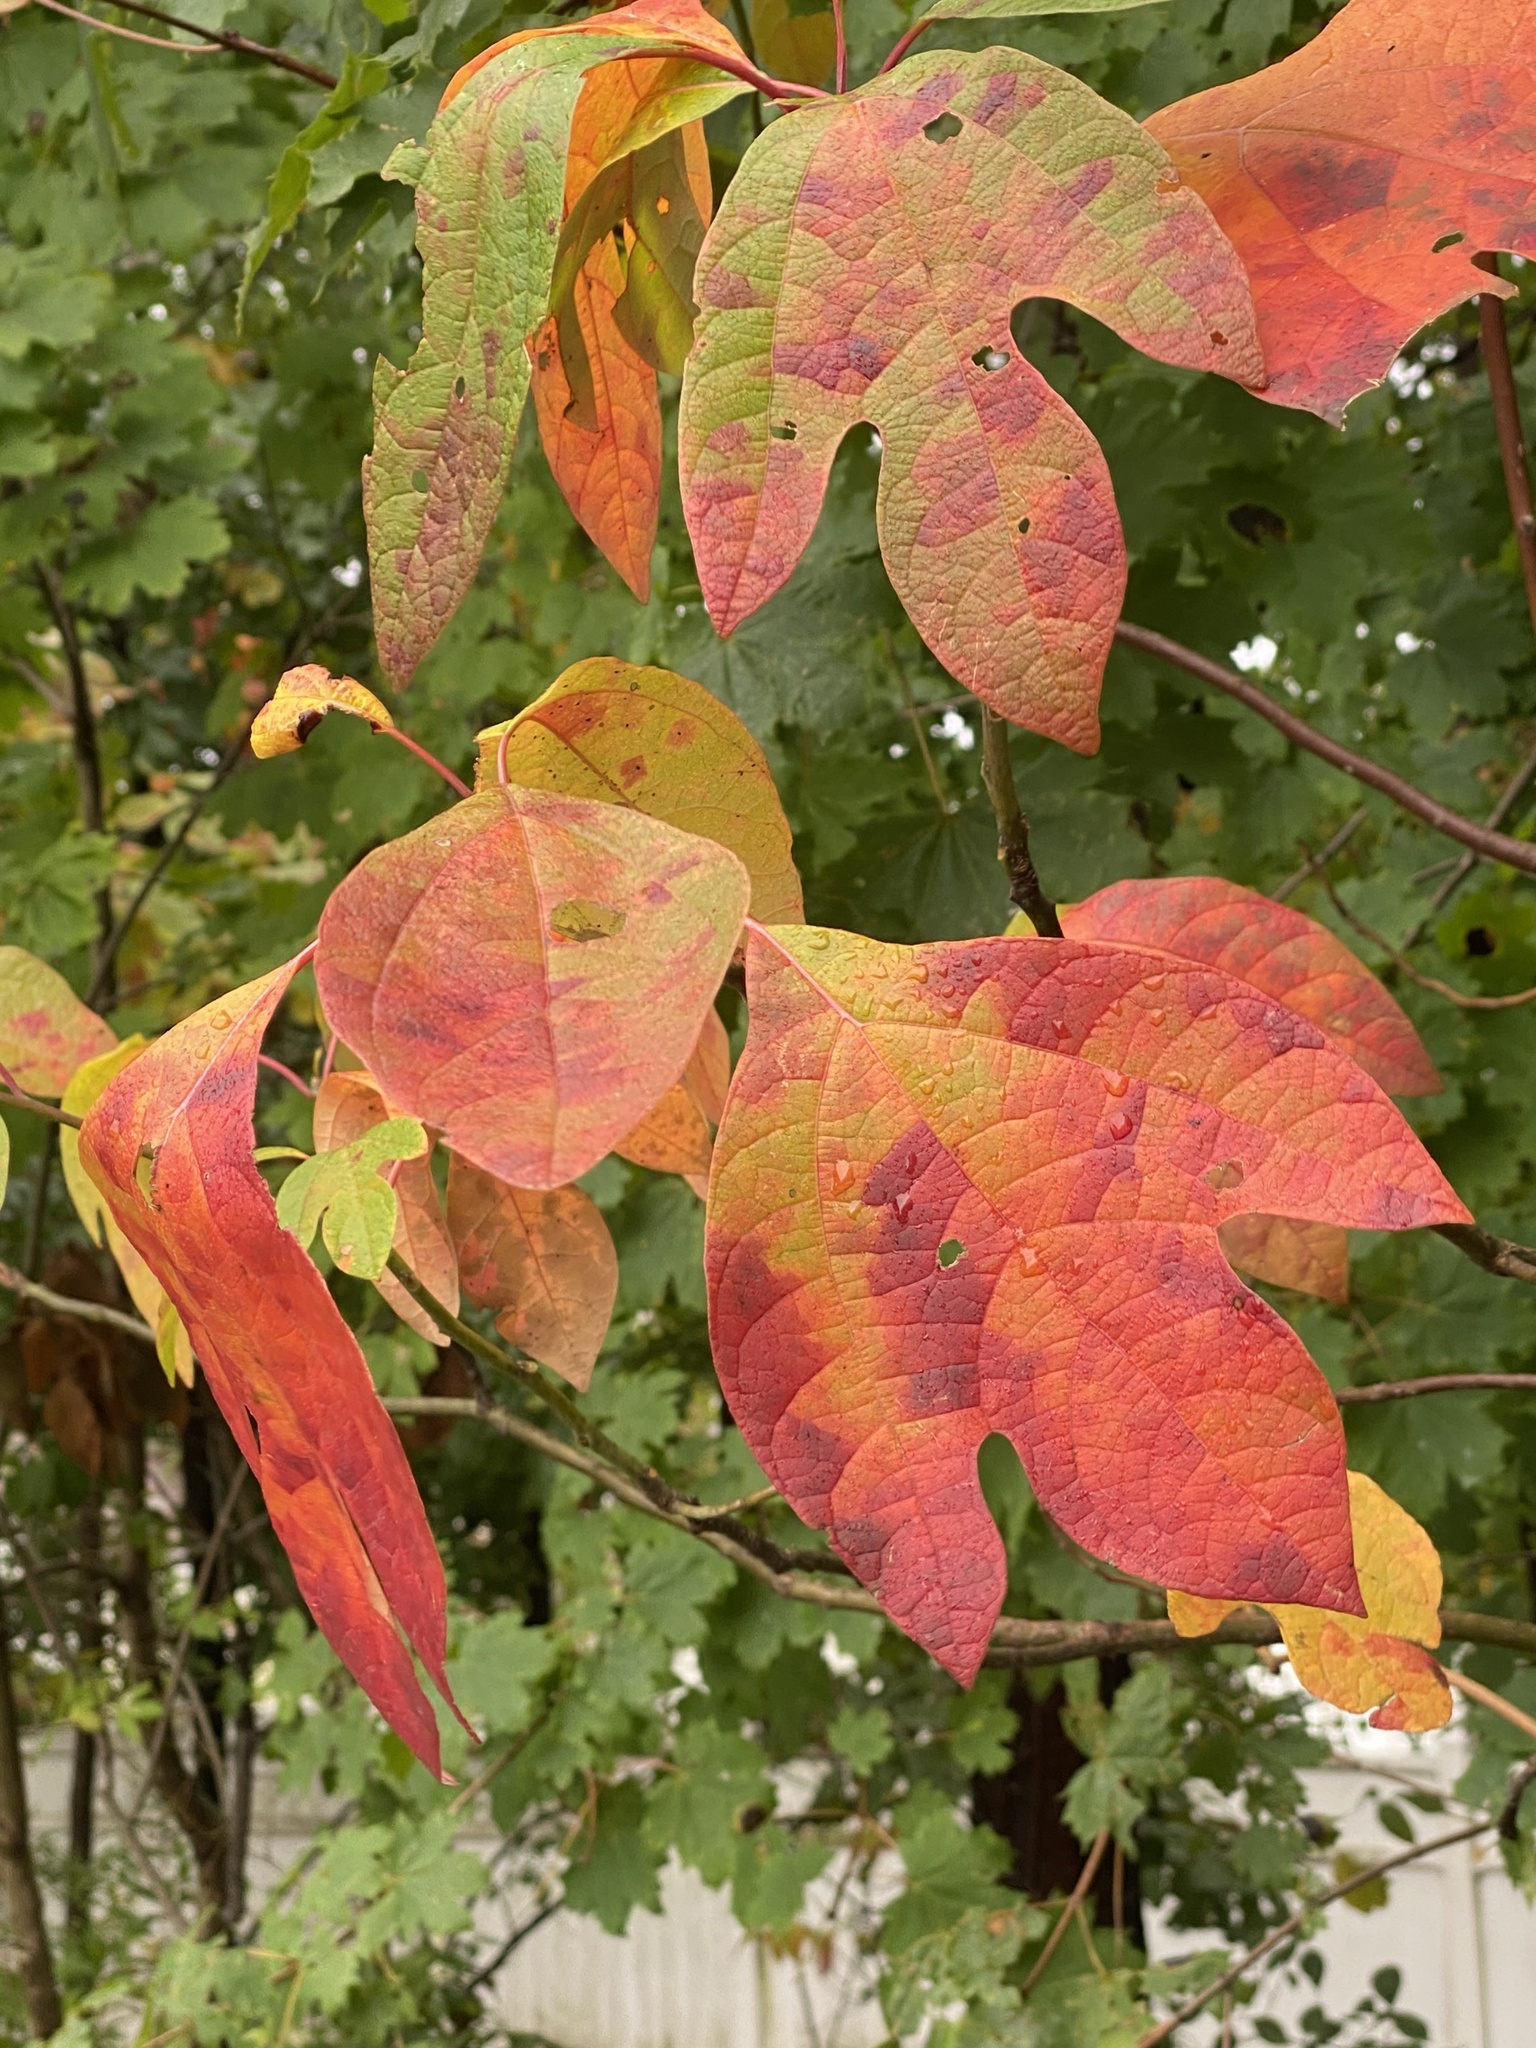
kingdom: Plantae
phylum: Tracheophyta
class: Magnoliopsida
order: Laurales
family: Lauraceae
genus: Sassafras
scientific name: Sassafras albidum
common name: Sassafras
